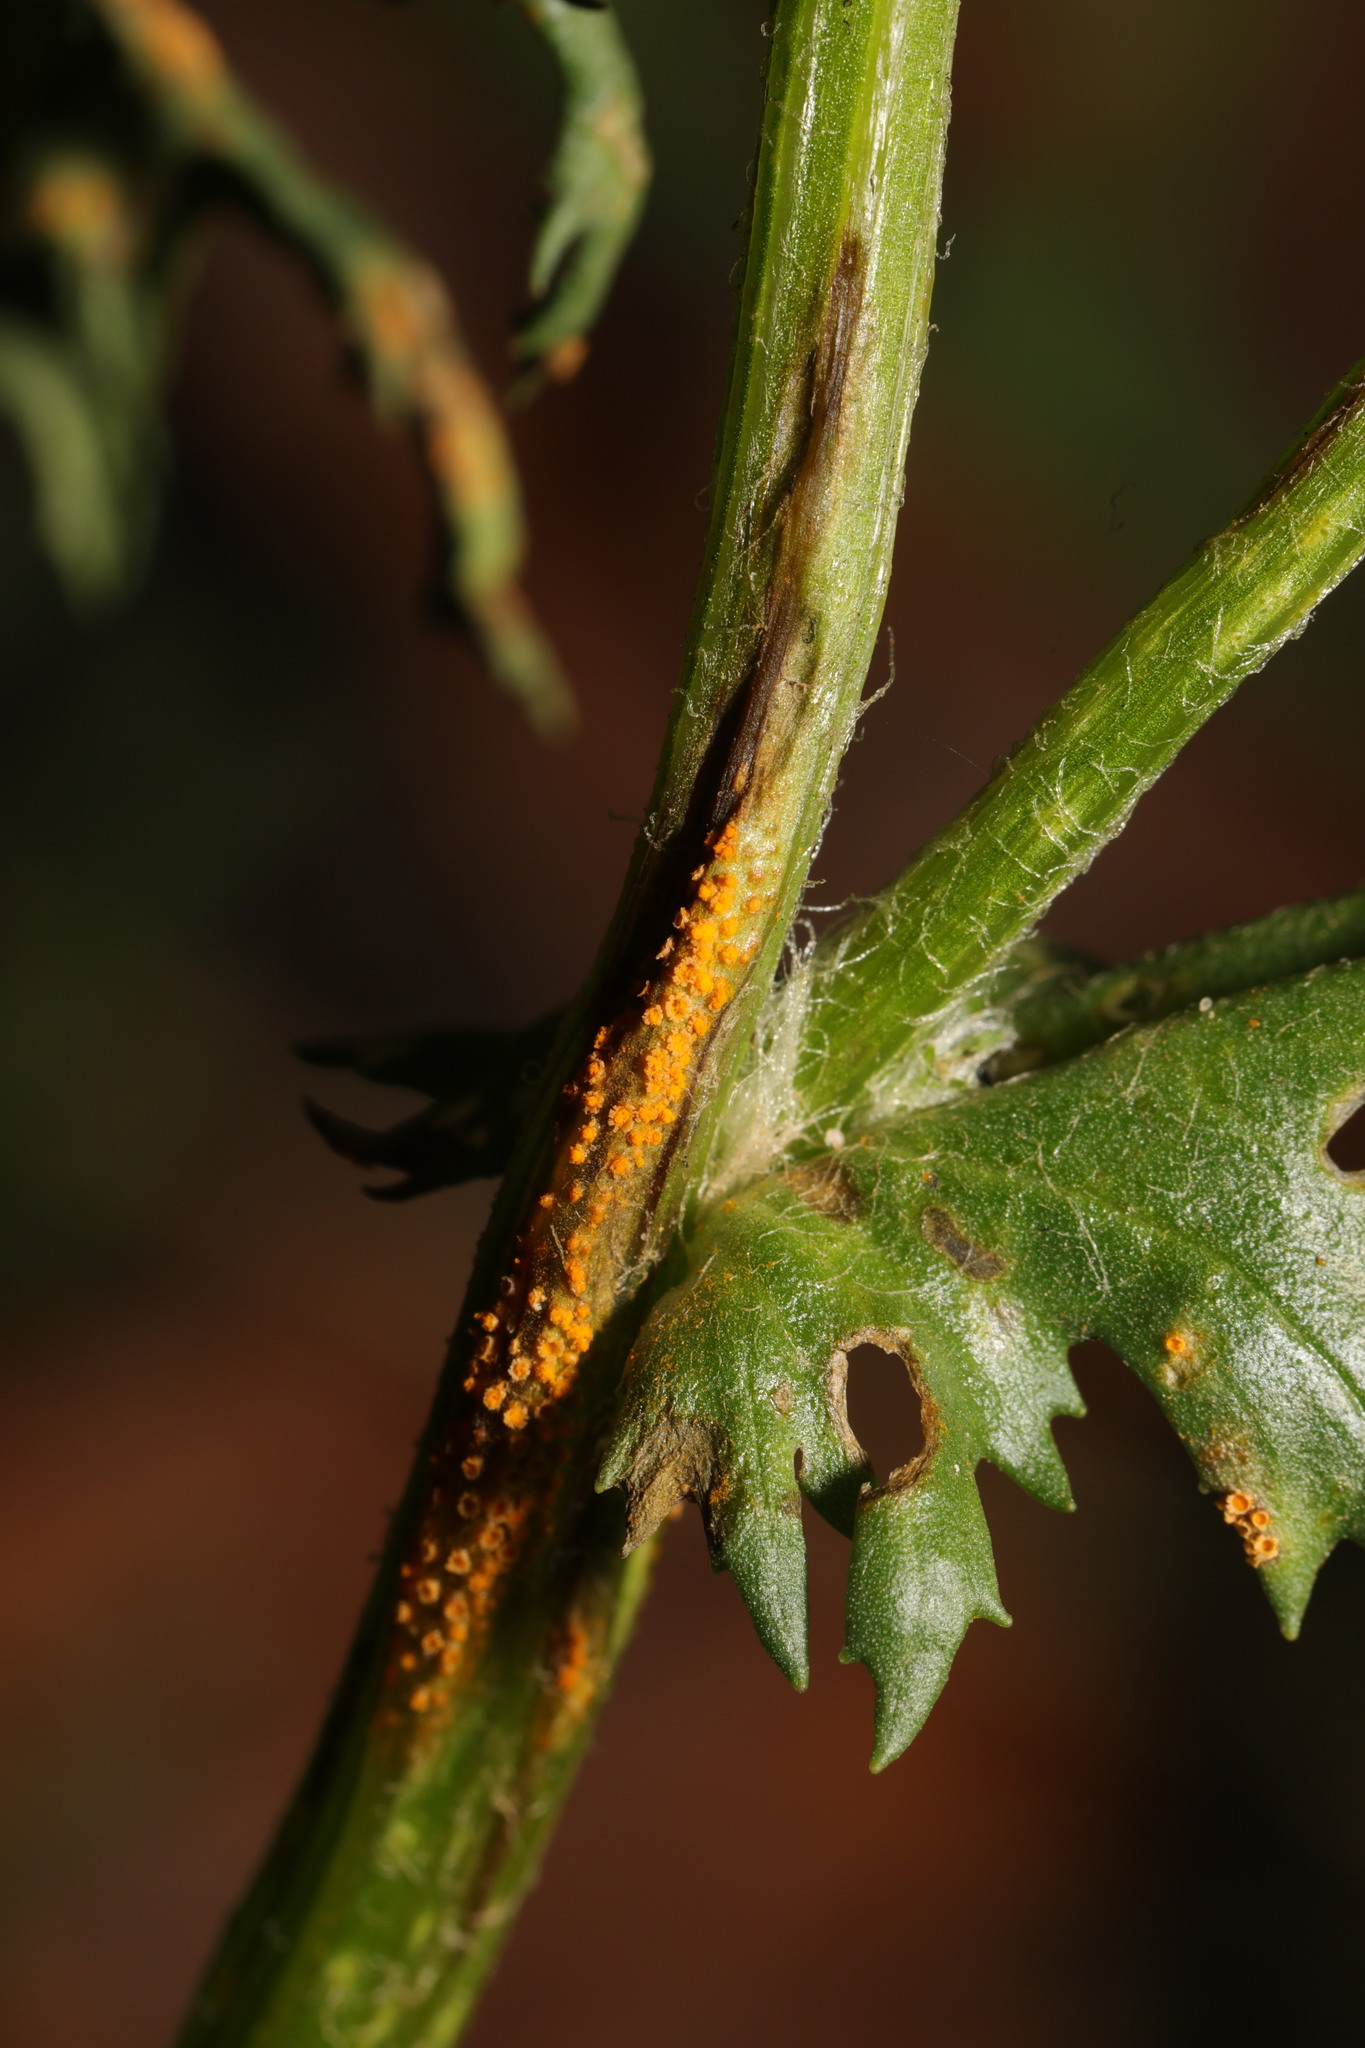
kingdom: Fungi
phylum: Basidiomycota
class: Pucciniomycetes
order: Pucciniales
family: Pucciniaceae
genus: Puccinia
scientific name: Puccinia lagenophorae
